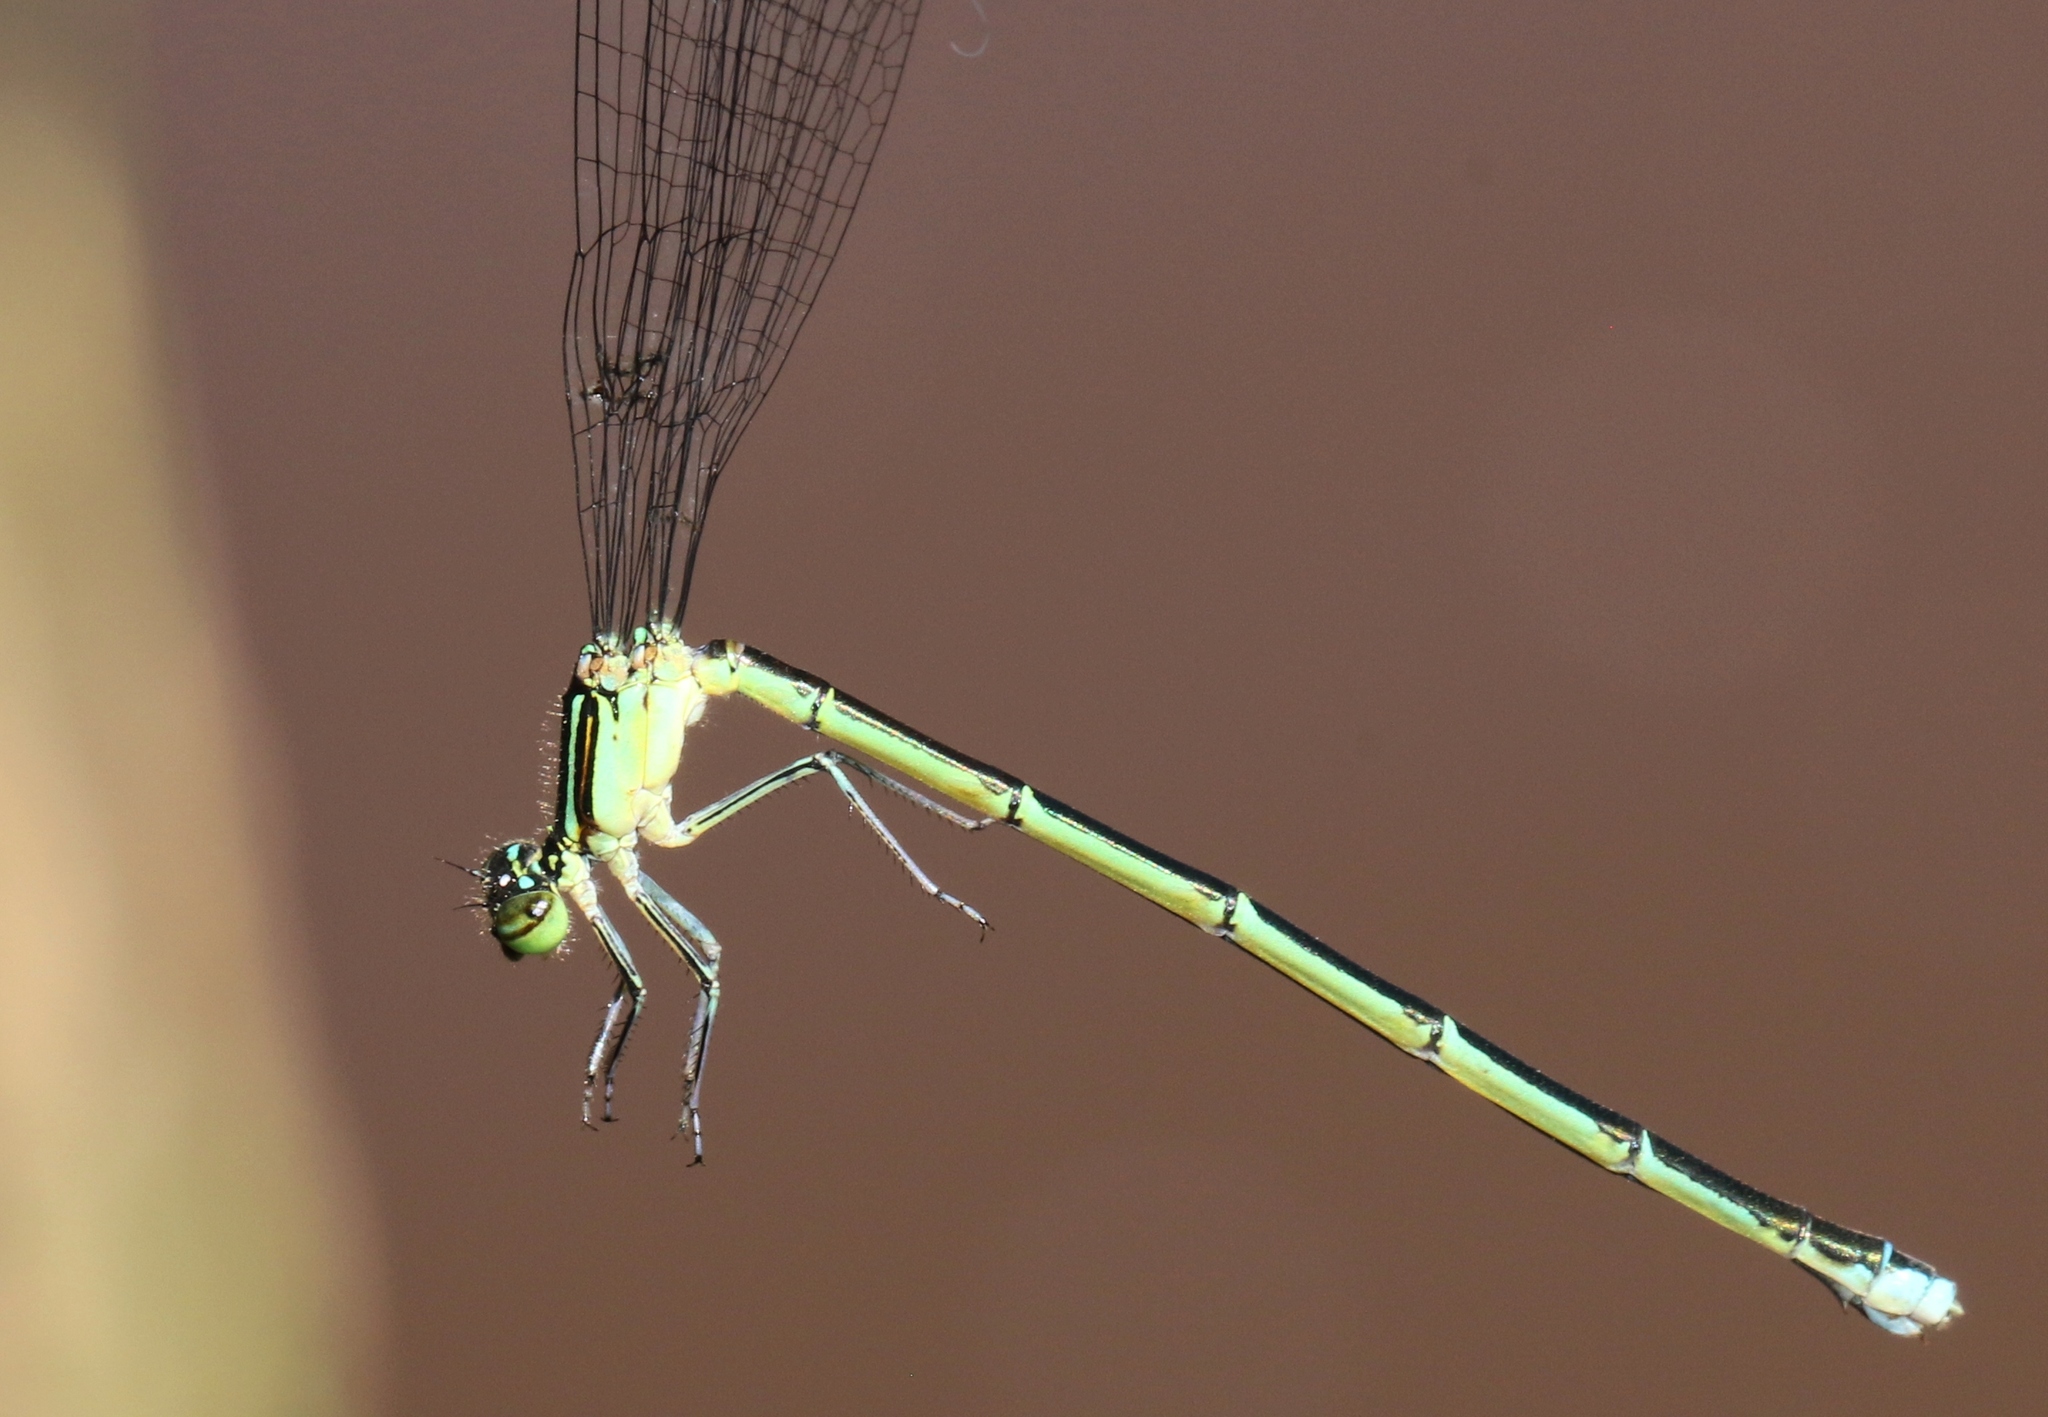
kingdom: Animalia
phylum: Arthropoda
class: Insecta
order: Odonata
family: Coenagrionidae
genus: Enallagma
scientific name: Enallagma exsulans
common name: Stream bluet
